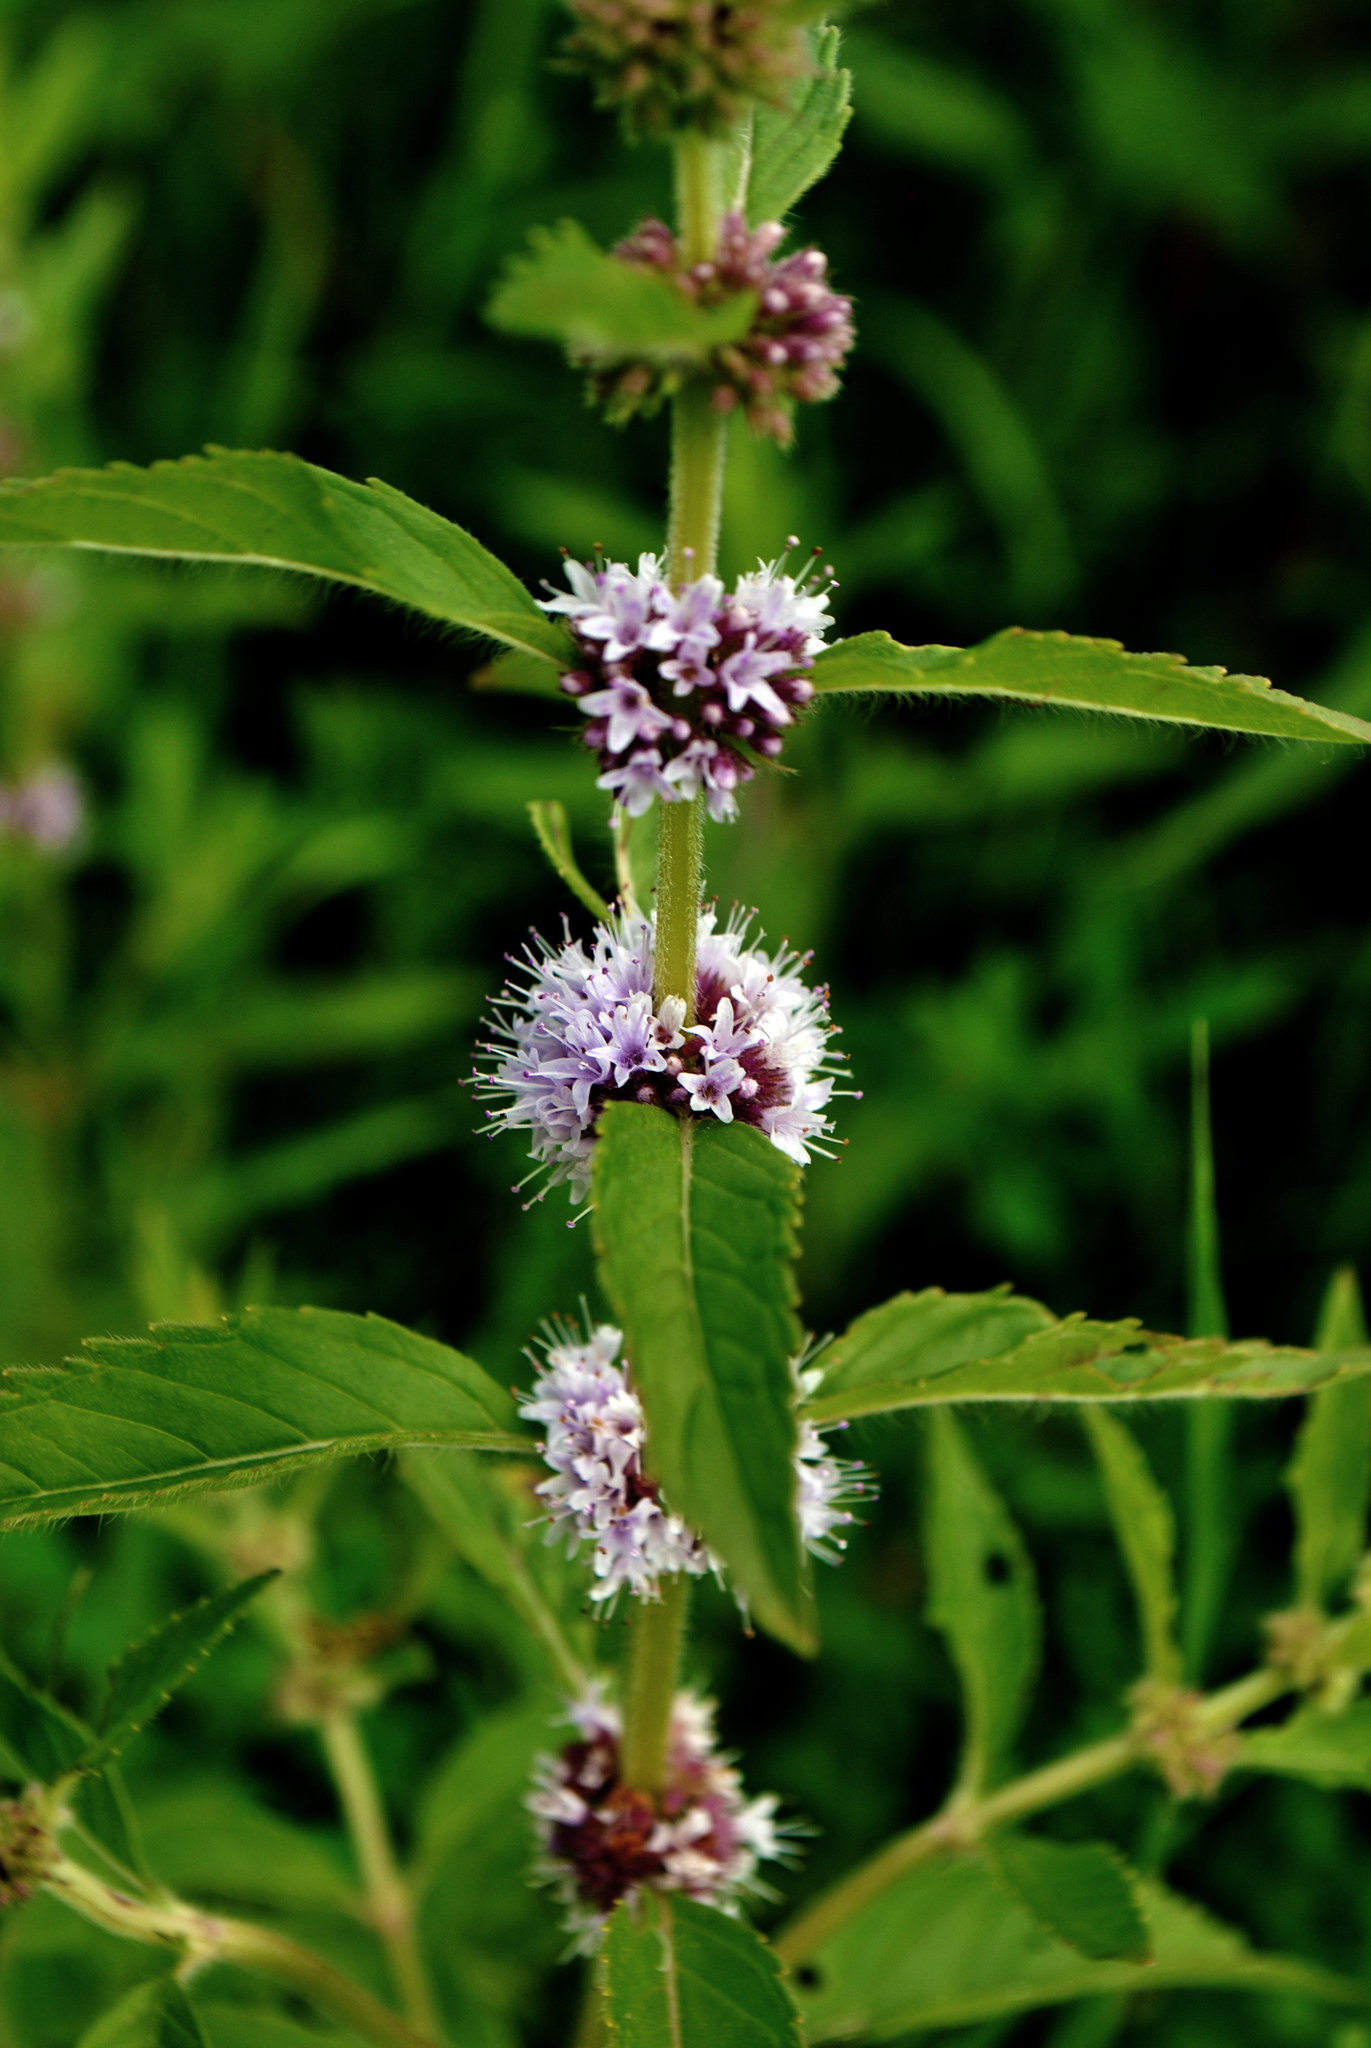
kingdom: Plantae
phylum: Tracheophyta
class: Magnoliopsida
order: Lamiales
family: Lamiaceae
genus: Mentha
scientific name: Mentha arvensis
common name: Corn mint
